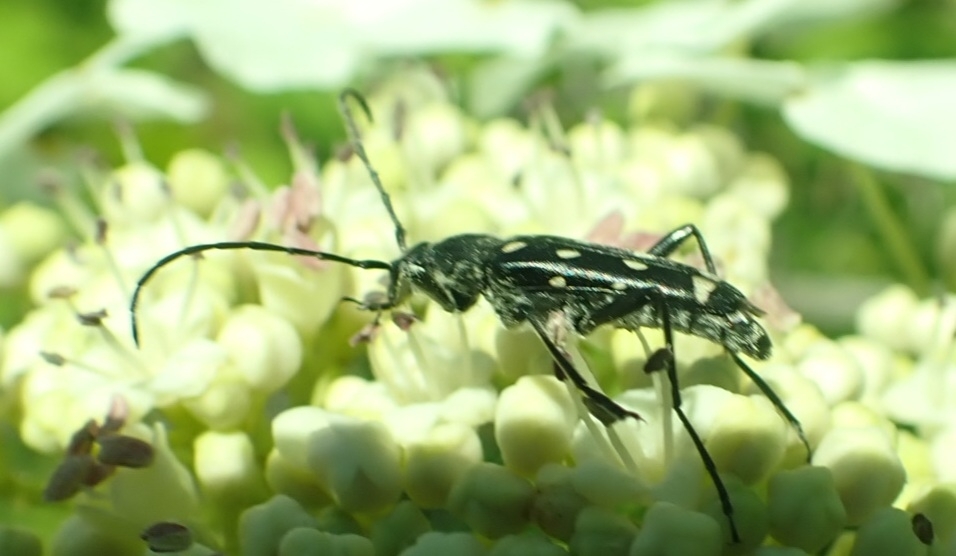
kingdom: Animalia
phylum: Arthropoda
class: Insecta
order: Coleoptera
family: Cerambycidae
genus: Leptura
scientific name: Leptura duodecimguttata
